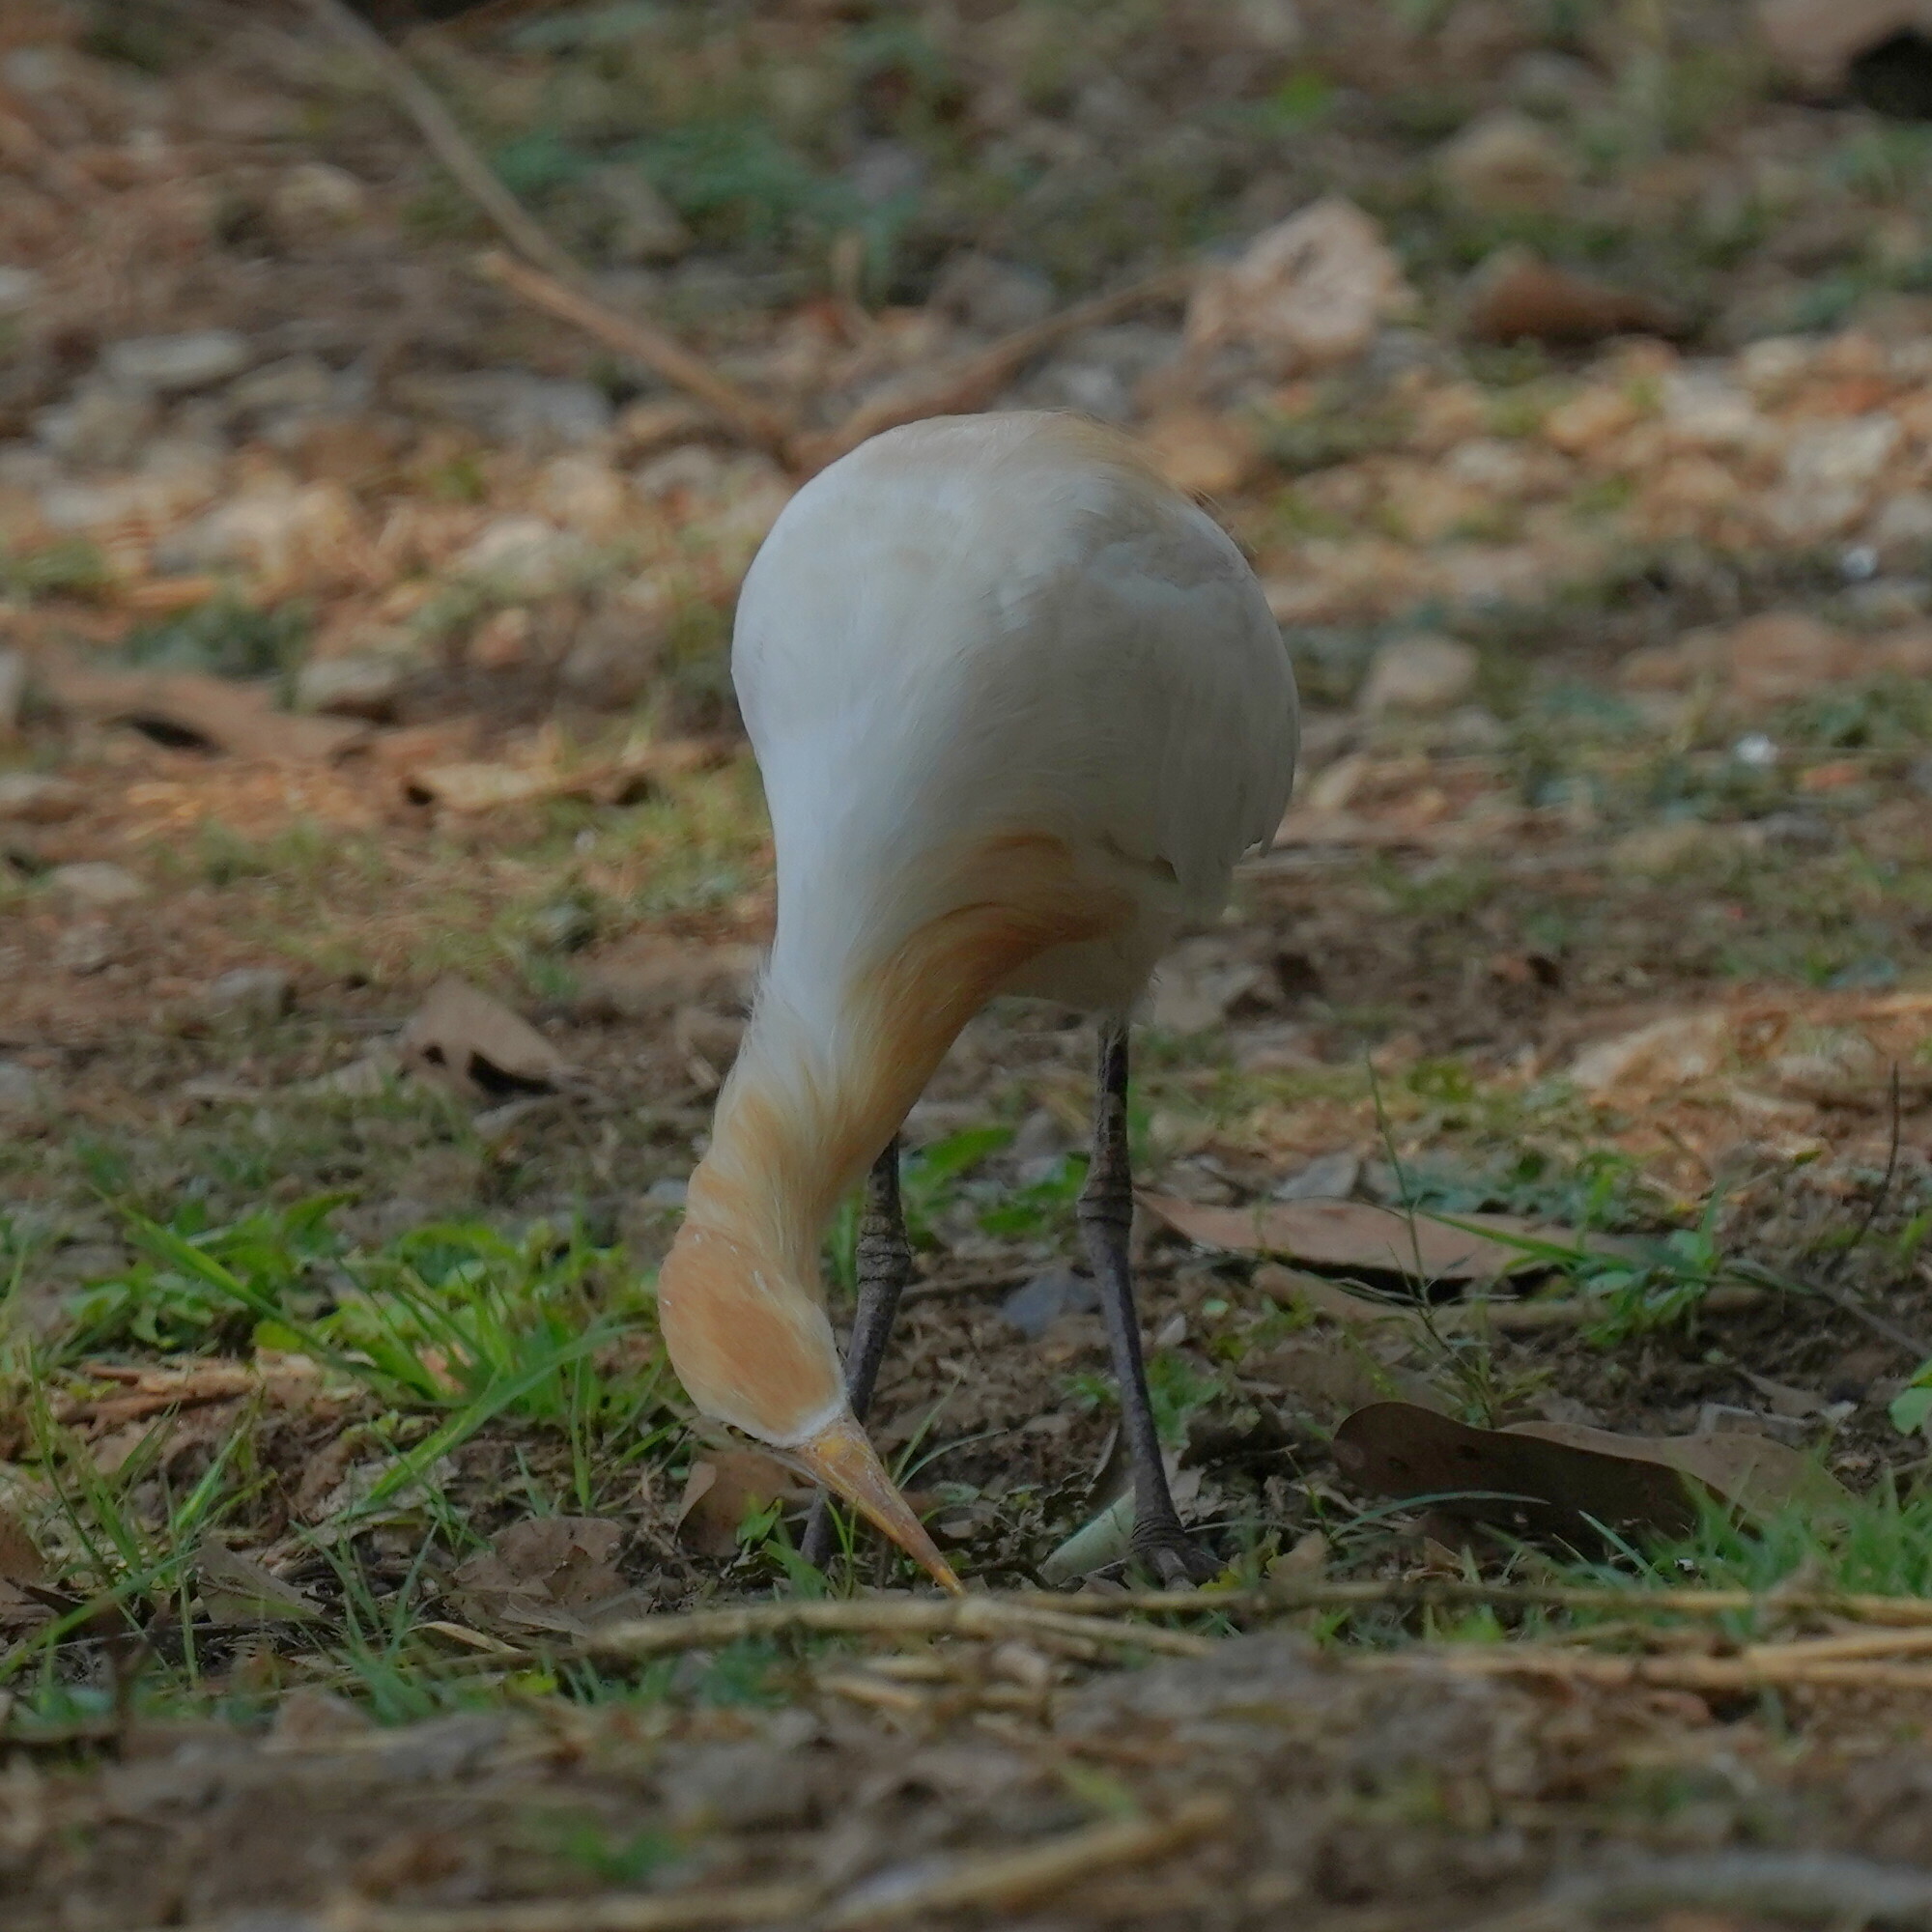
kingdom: Animalia
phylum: Chordata
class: Aves
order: Pelecaniformes
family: Ardeidae
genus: Bubulcus
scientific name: Bubulcus coromandus
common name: Eastern cattle egret
